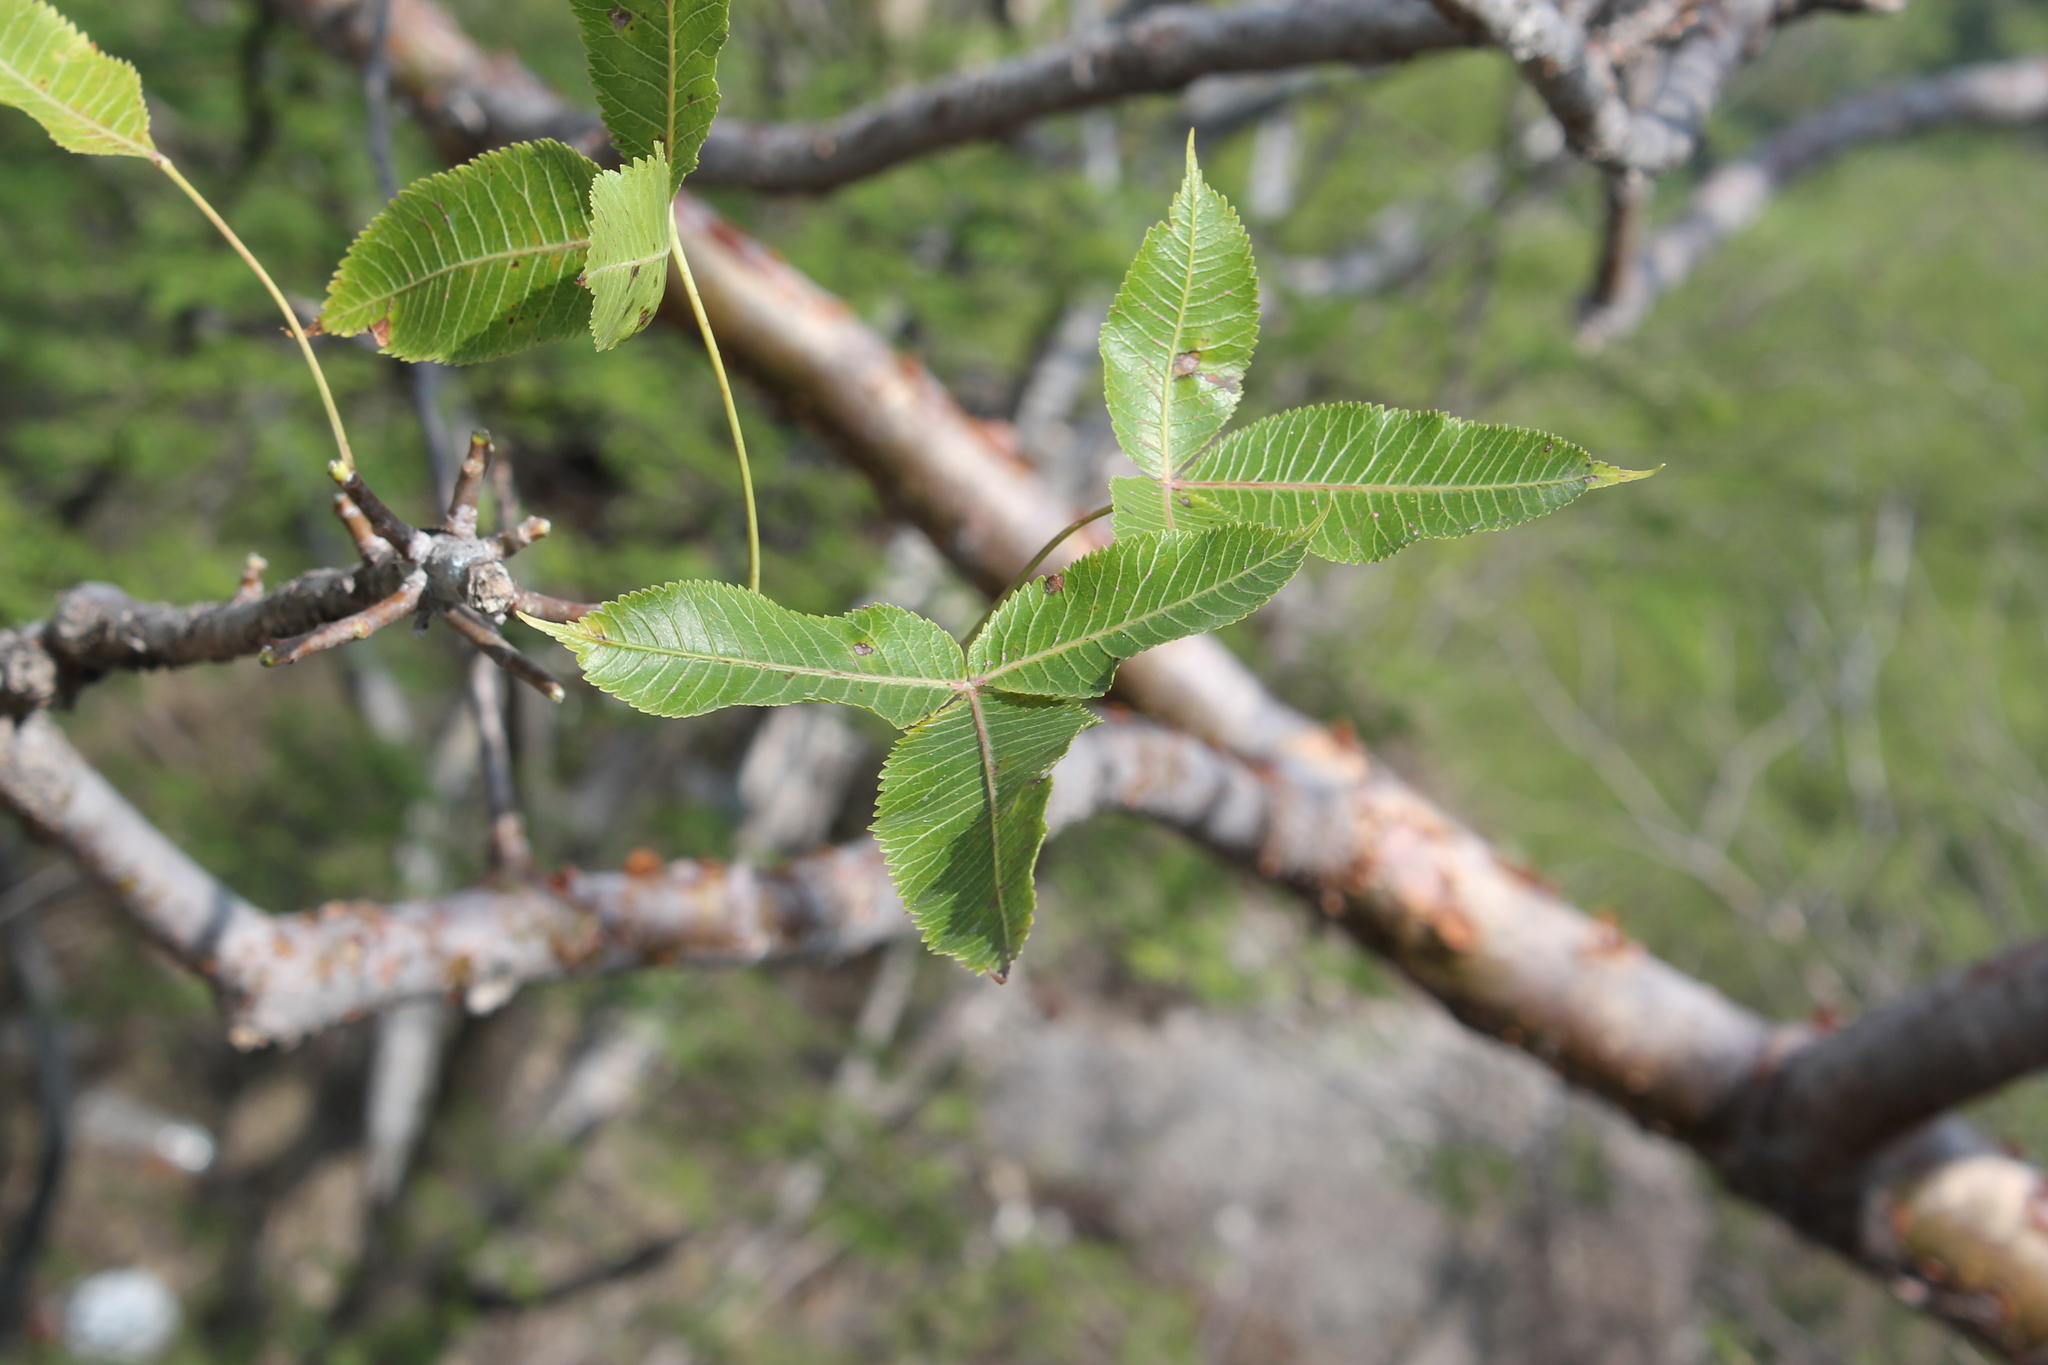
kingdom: Plantae
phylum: Tracheophyta
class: Magnoliopsida
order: Sapindales
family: Burseraceae
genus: Bursera
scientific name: Bursera kerberi
